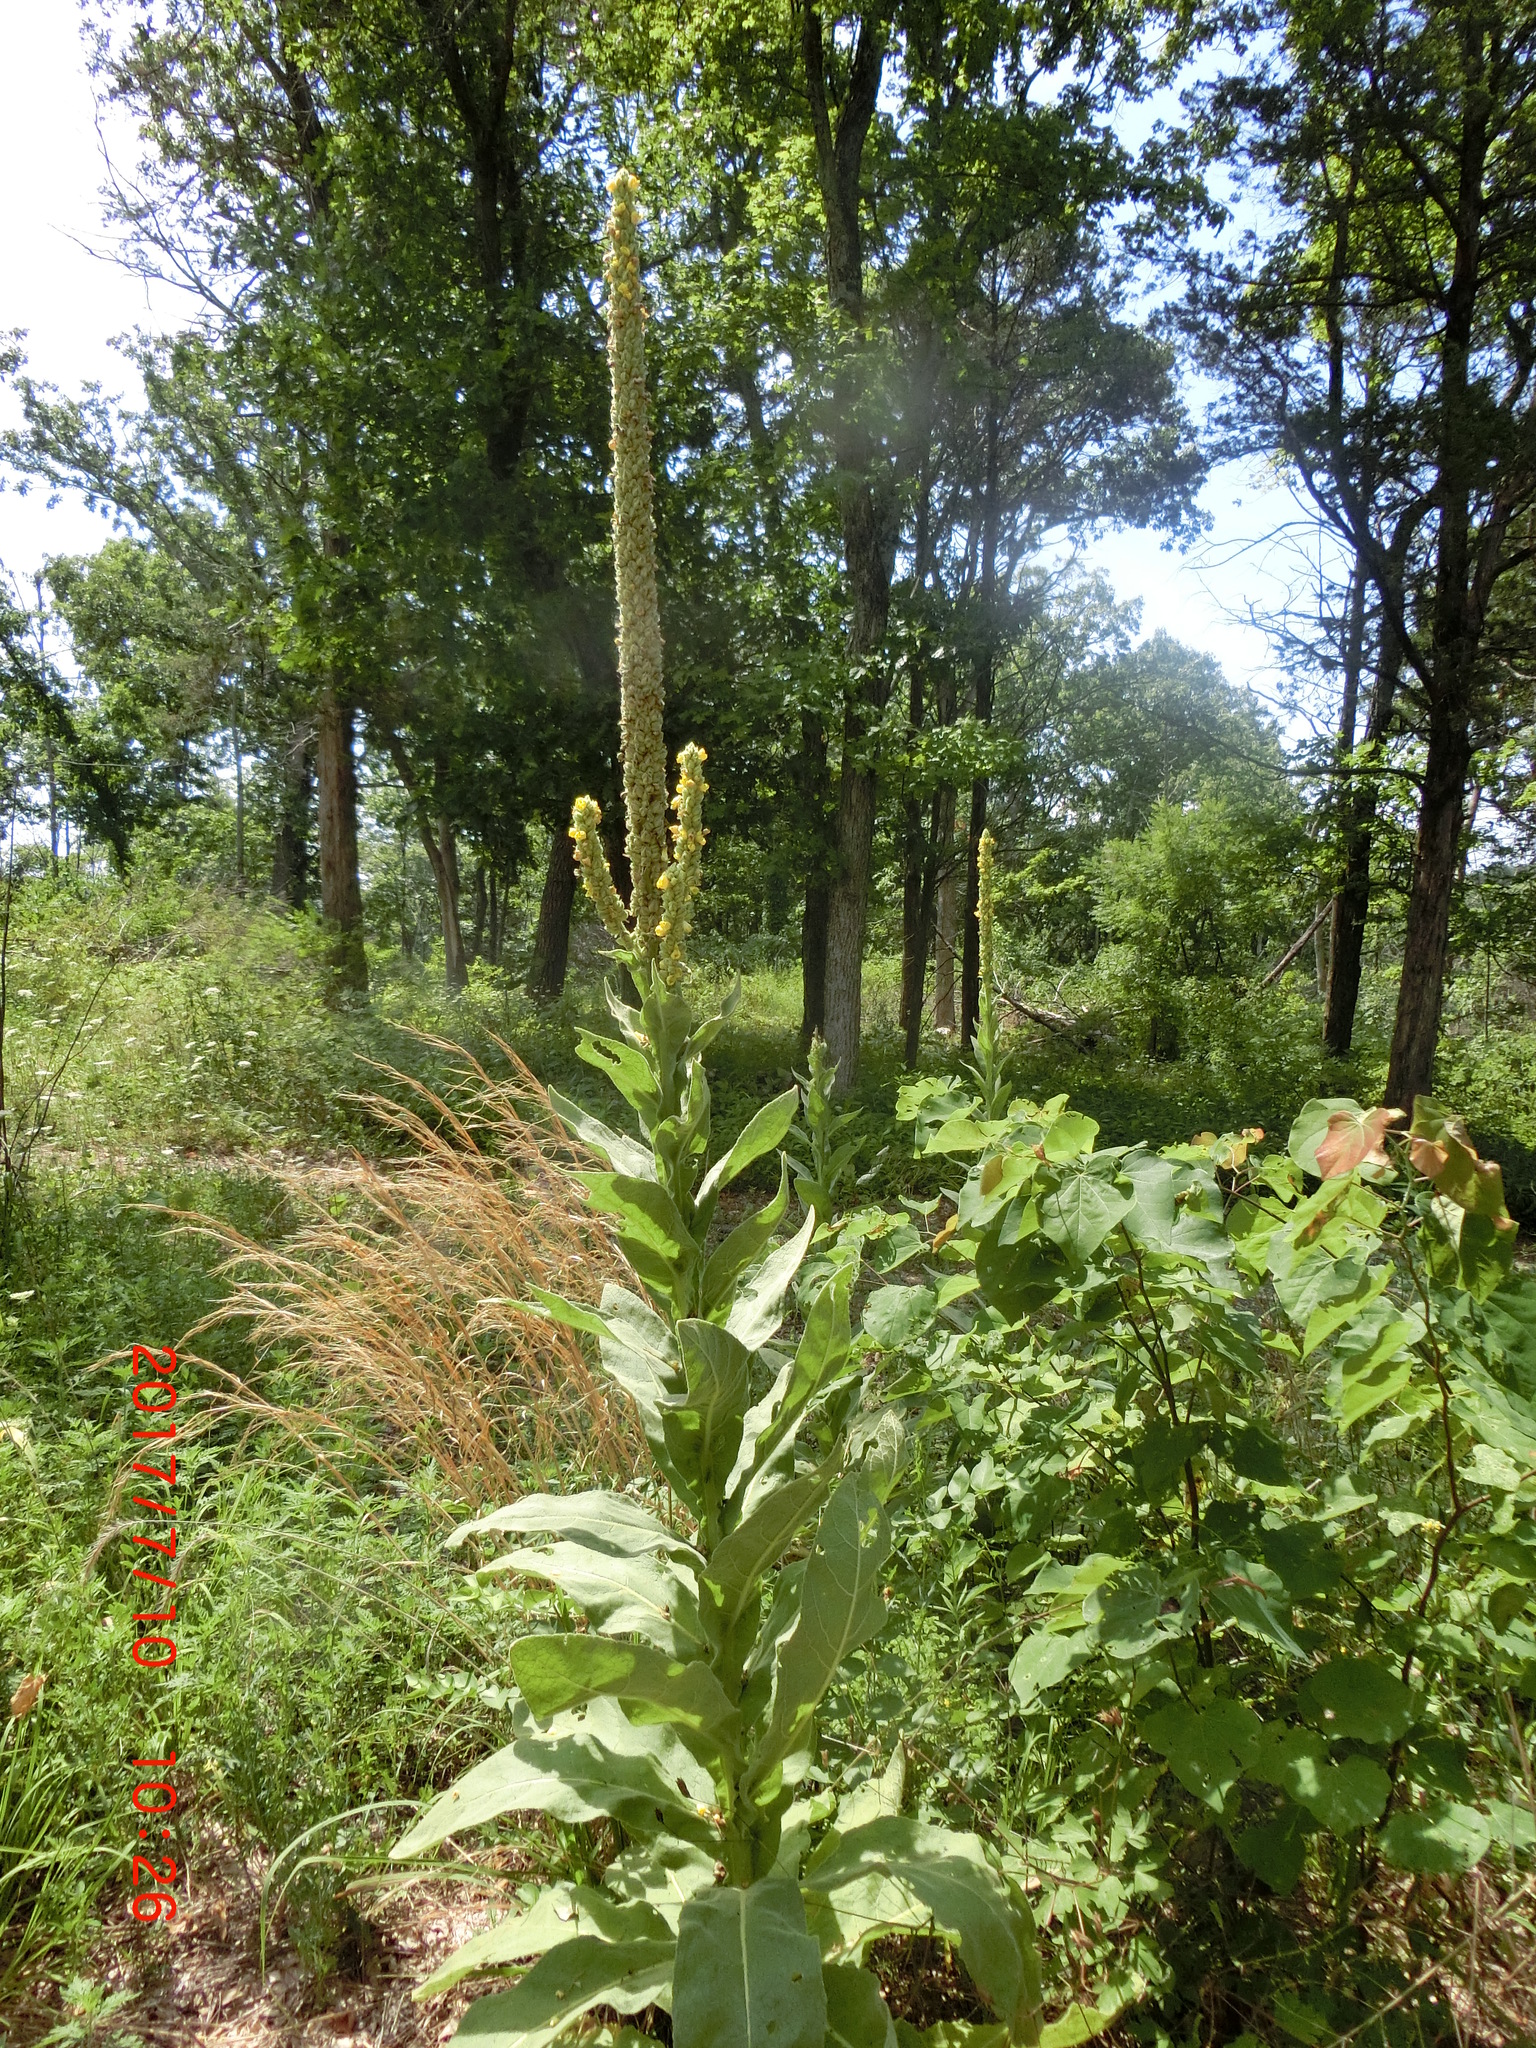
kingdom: Plantae
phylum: Tracheophyta
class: Magnoliopsida
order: Lamiales
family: Scrophulariaceae
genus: Verbascum
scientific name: Verbascum thapsus
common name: Common mullein
